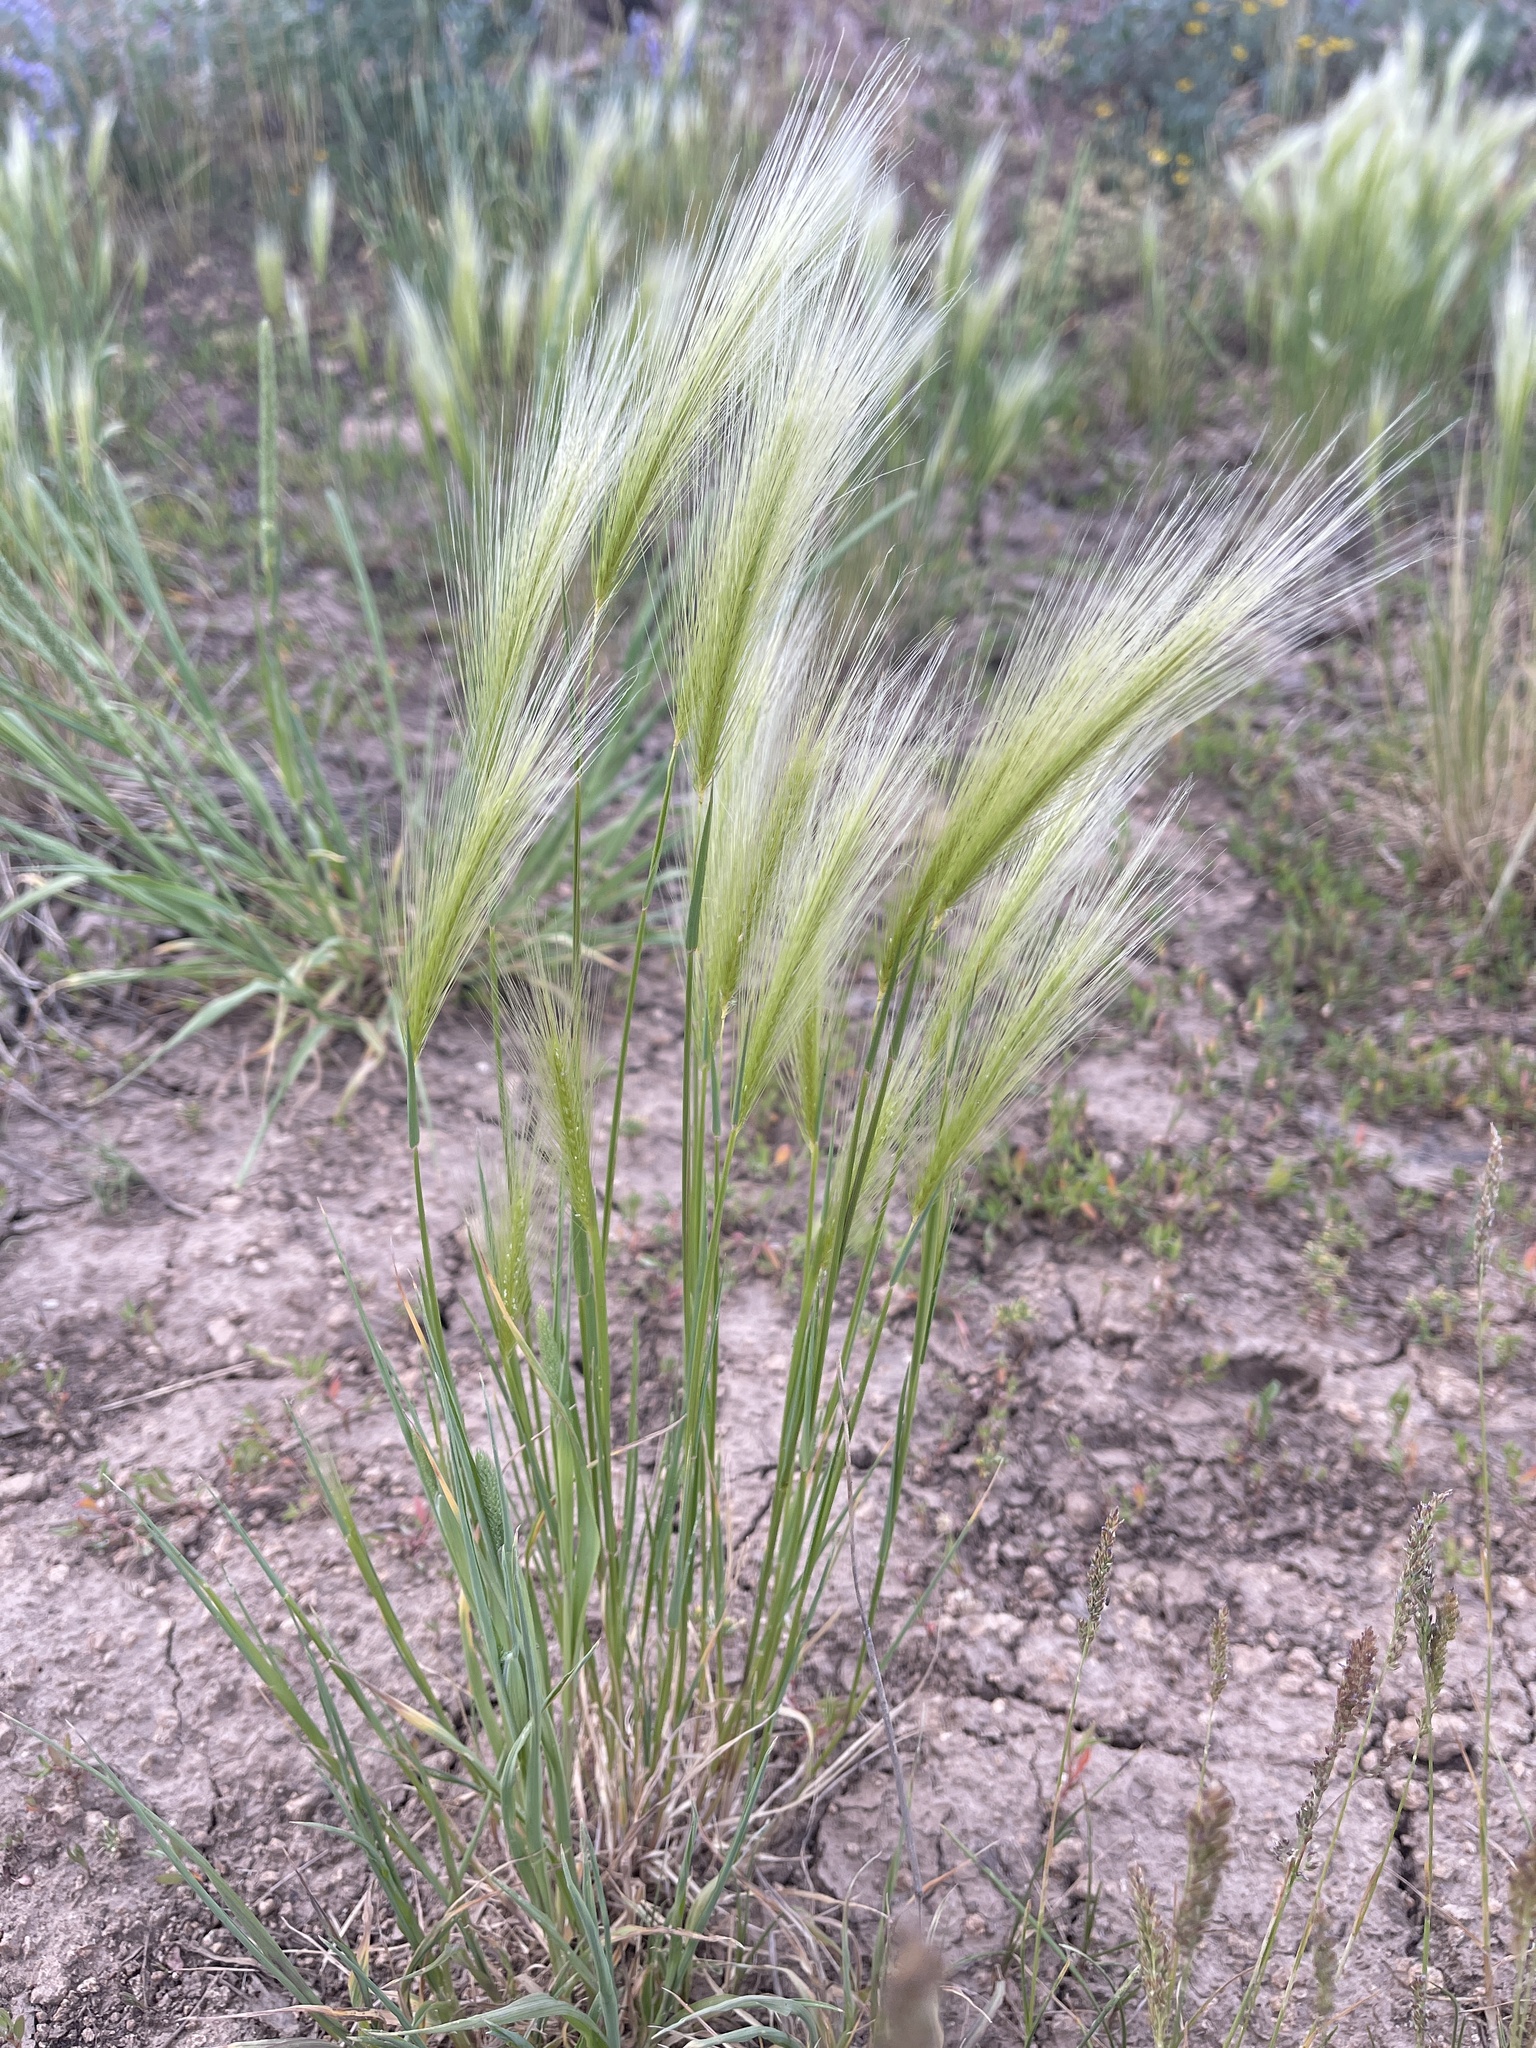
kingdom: Plantae
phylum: Tracheophyta
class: Liliopsida
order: Poales
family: Poaceae
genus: Hordeum
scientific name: Hordeum jubatum
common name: Foxtail barley
